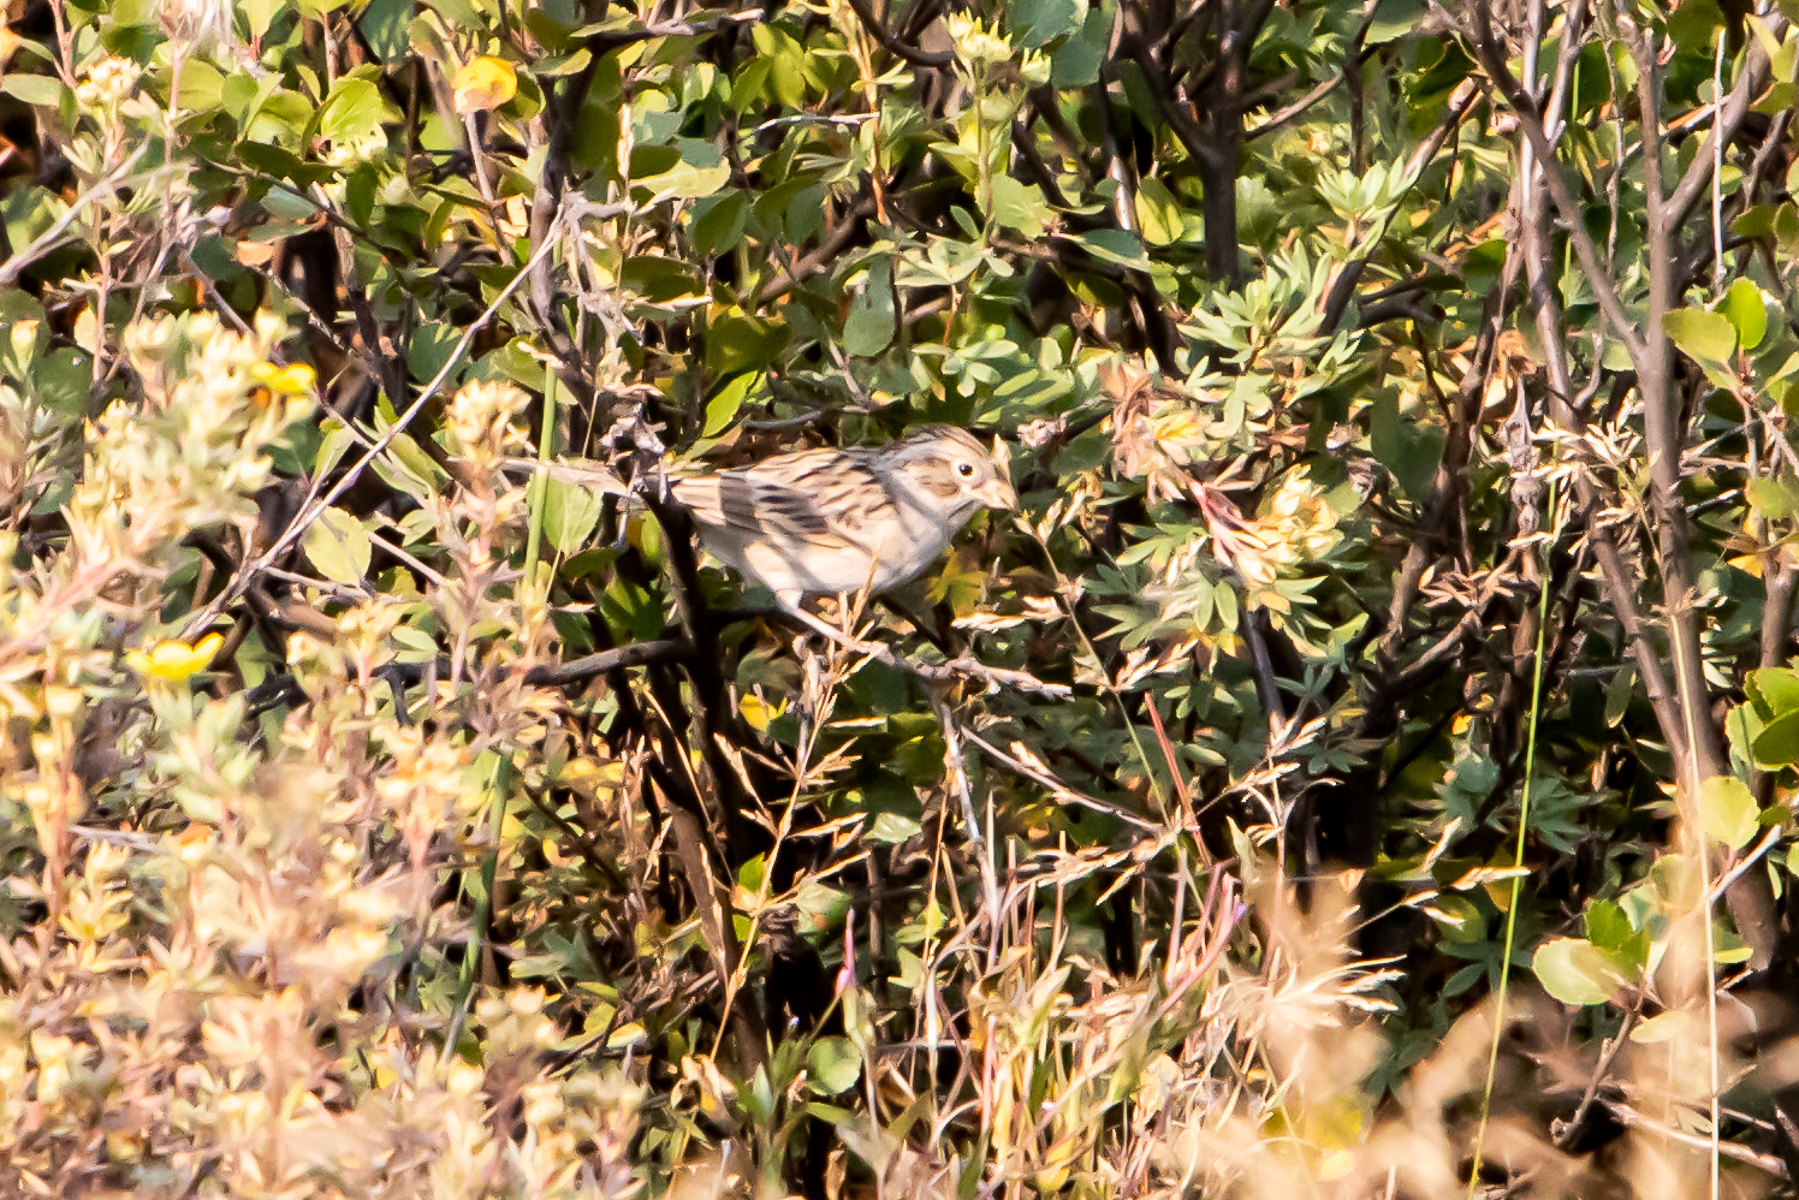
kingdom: Animalia
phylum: Chordata
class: Aves
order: Passeriformes
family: Passerellidae
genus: Spizella
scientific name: Spizella breweri
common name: Brewer's sparrow
